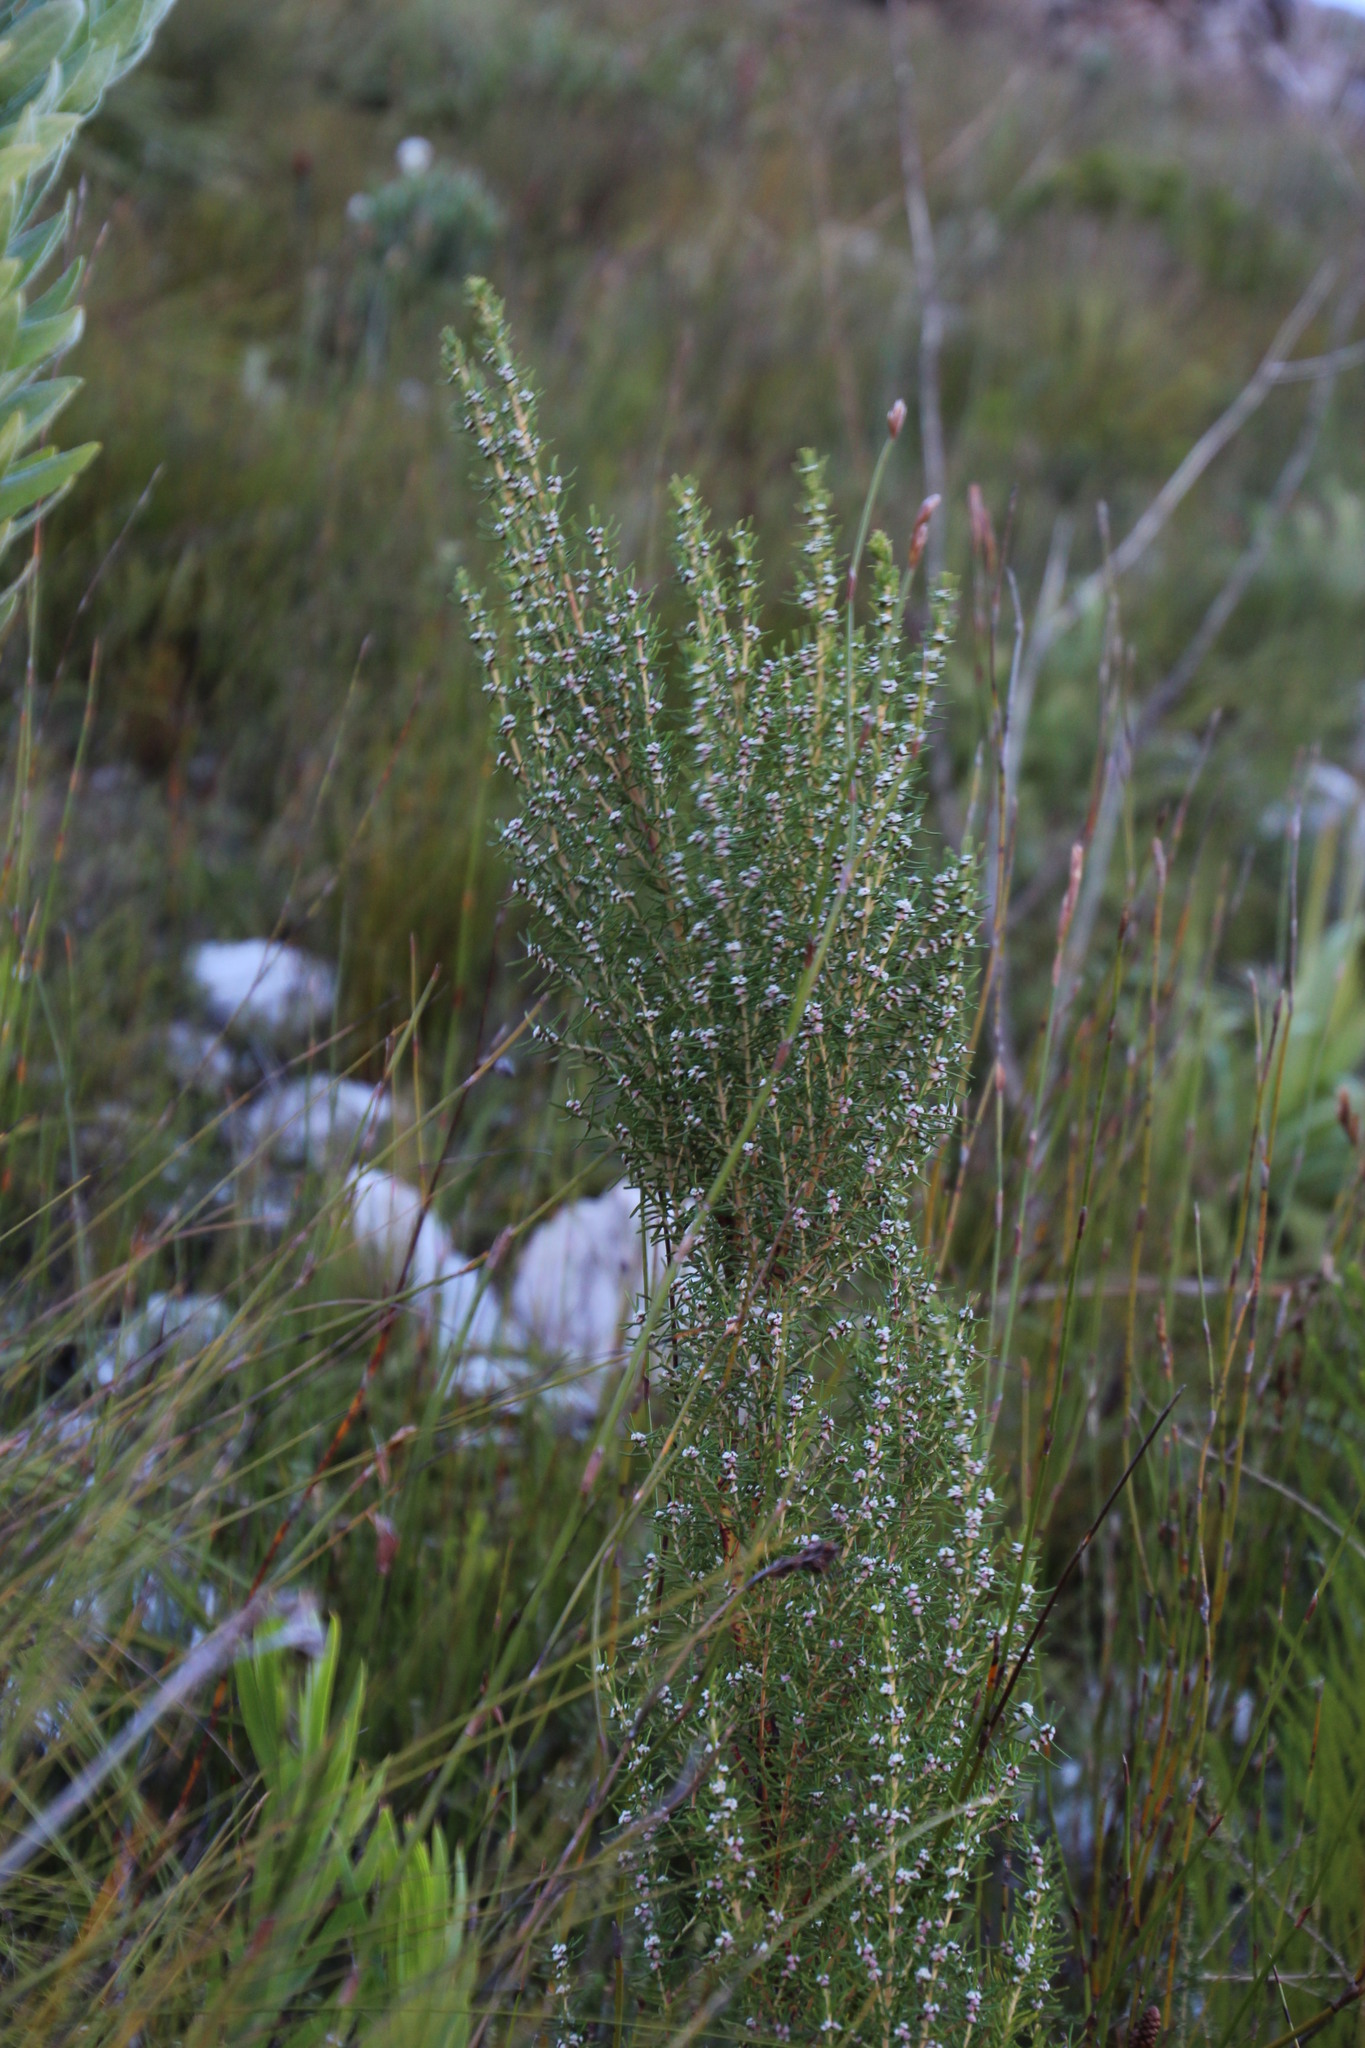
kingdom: Plantae
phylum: Tracheophyta
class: Magnoliopsida
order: Cornales
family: Grubbiaceae
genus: Grubbia
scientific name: Grubbia rosmarinifolia
